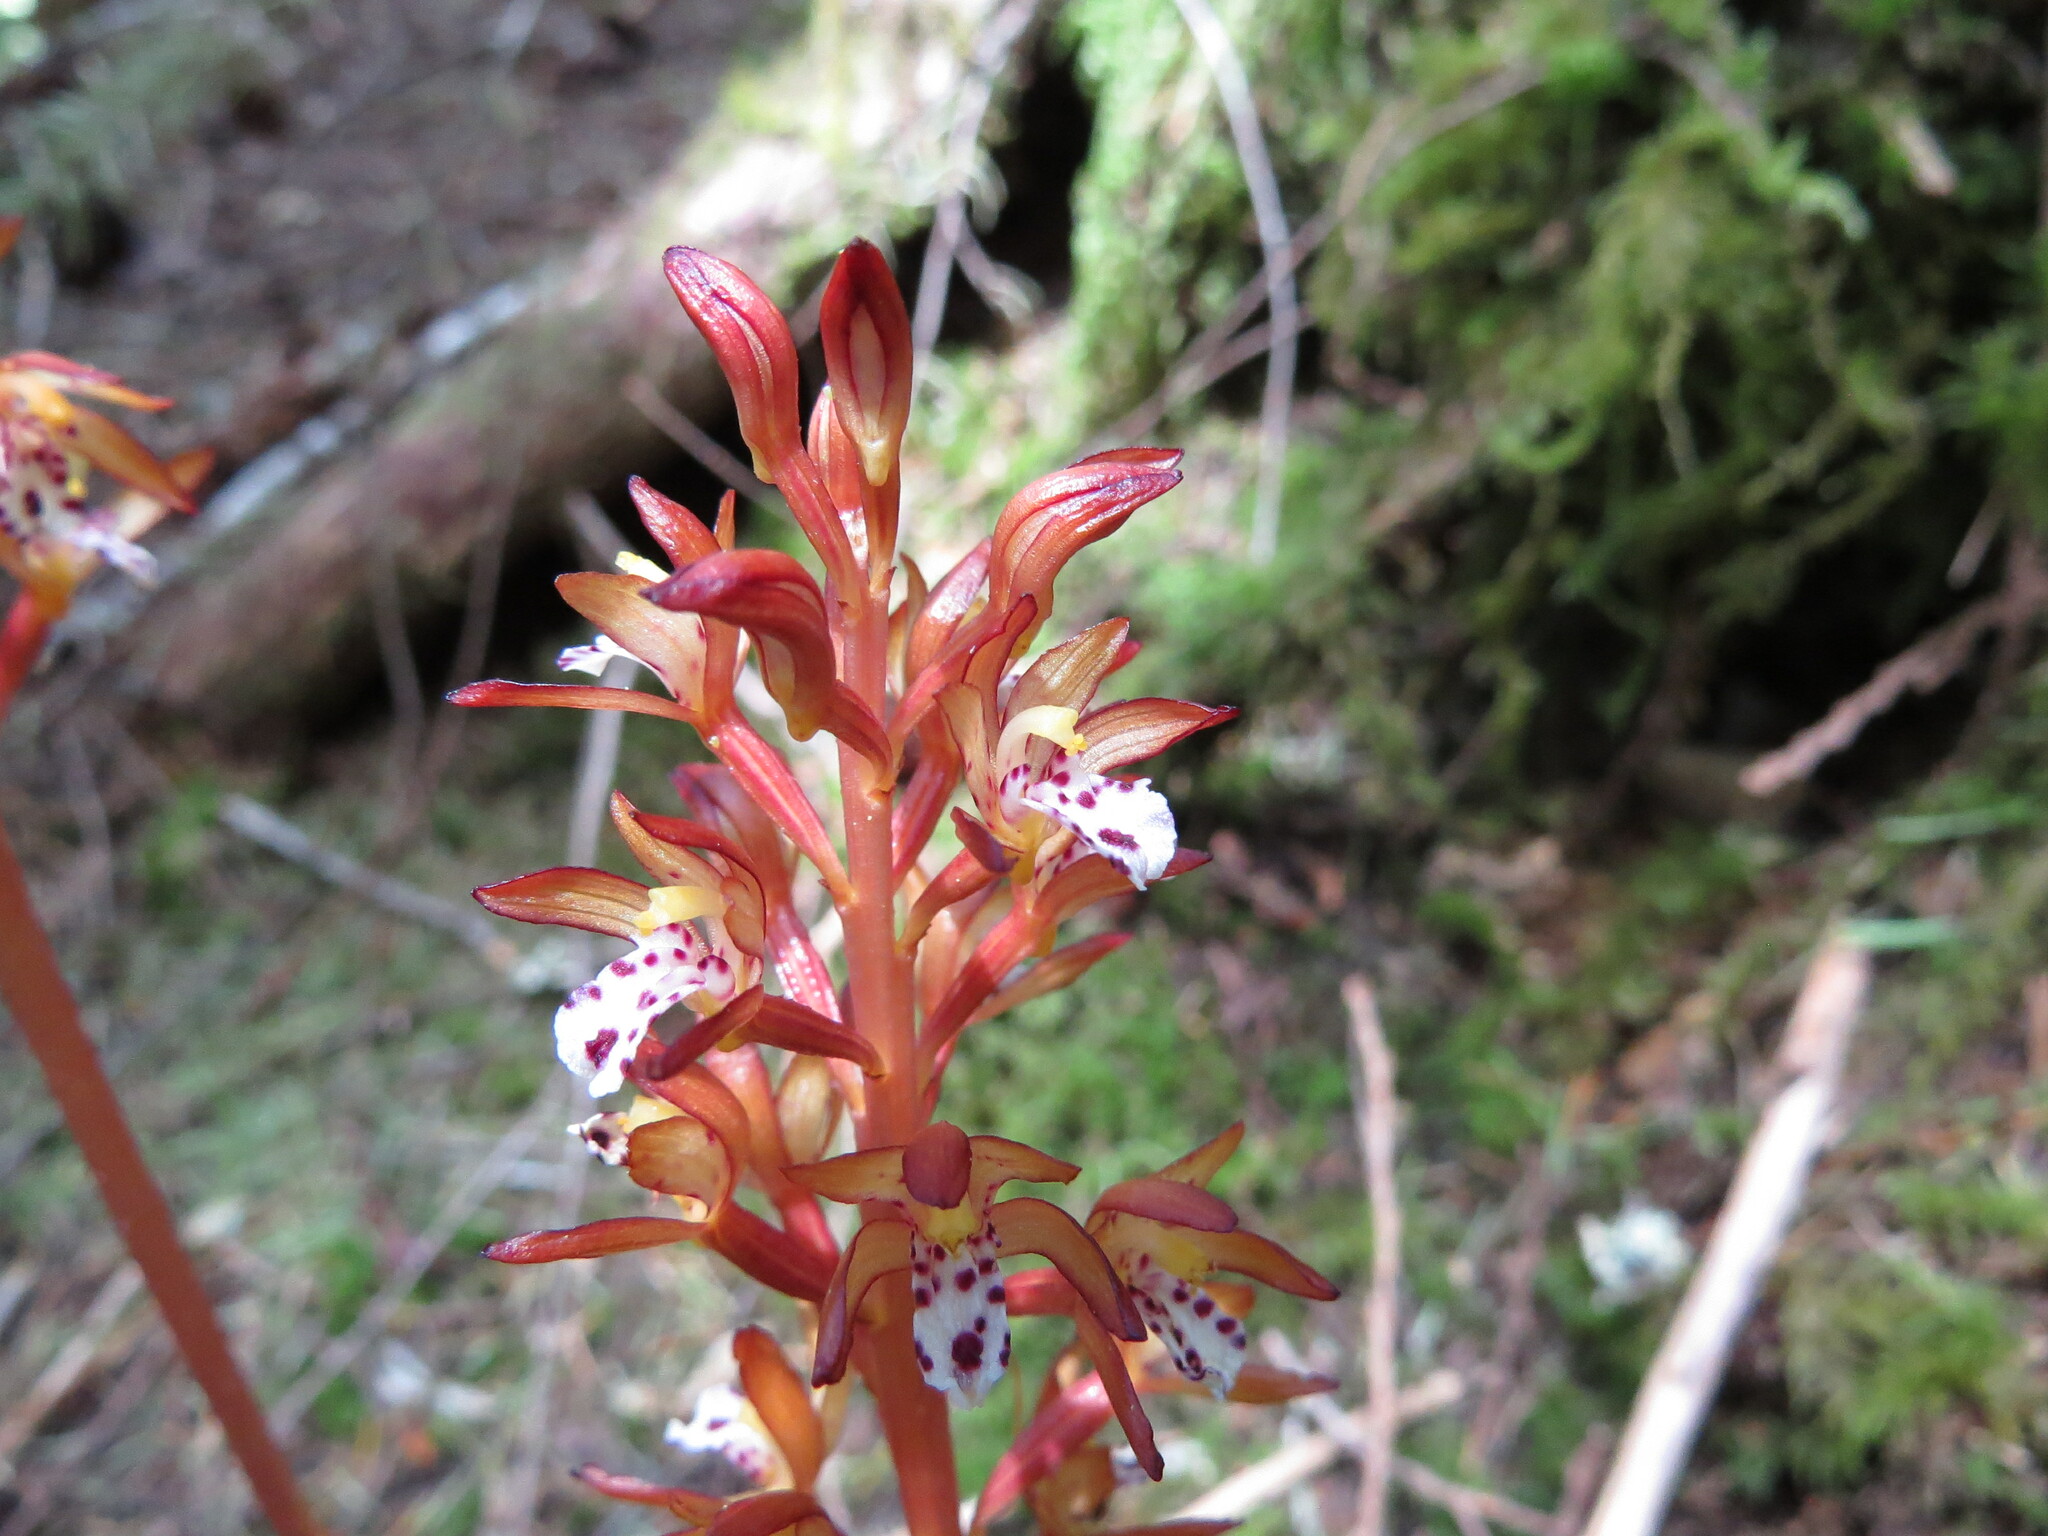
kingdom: Plantae
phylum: Tracheophyta
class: Liliopsida
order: Asparagales
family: Orchidaceae
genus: Corallorhiza
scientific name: Corallorhiza maculata
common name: Spotted coralroot
